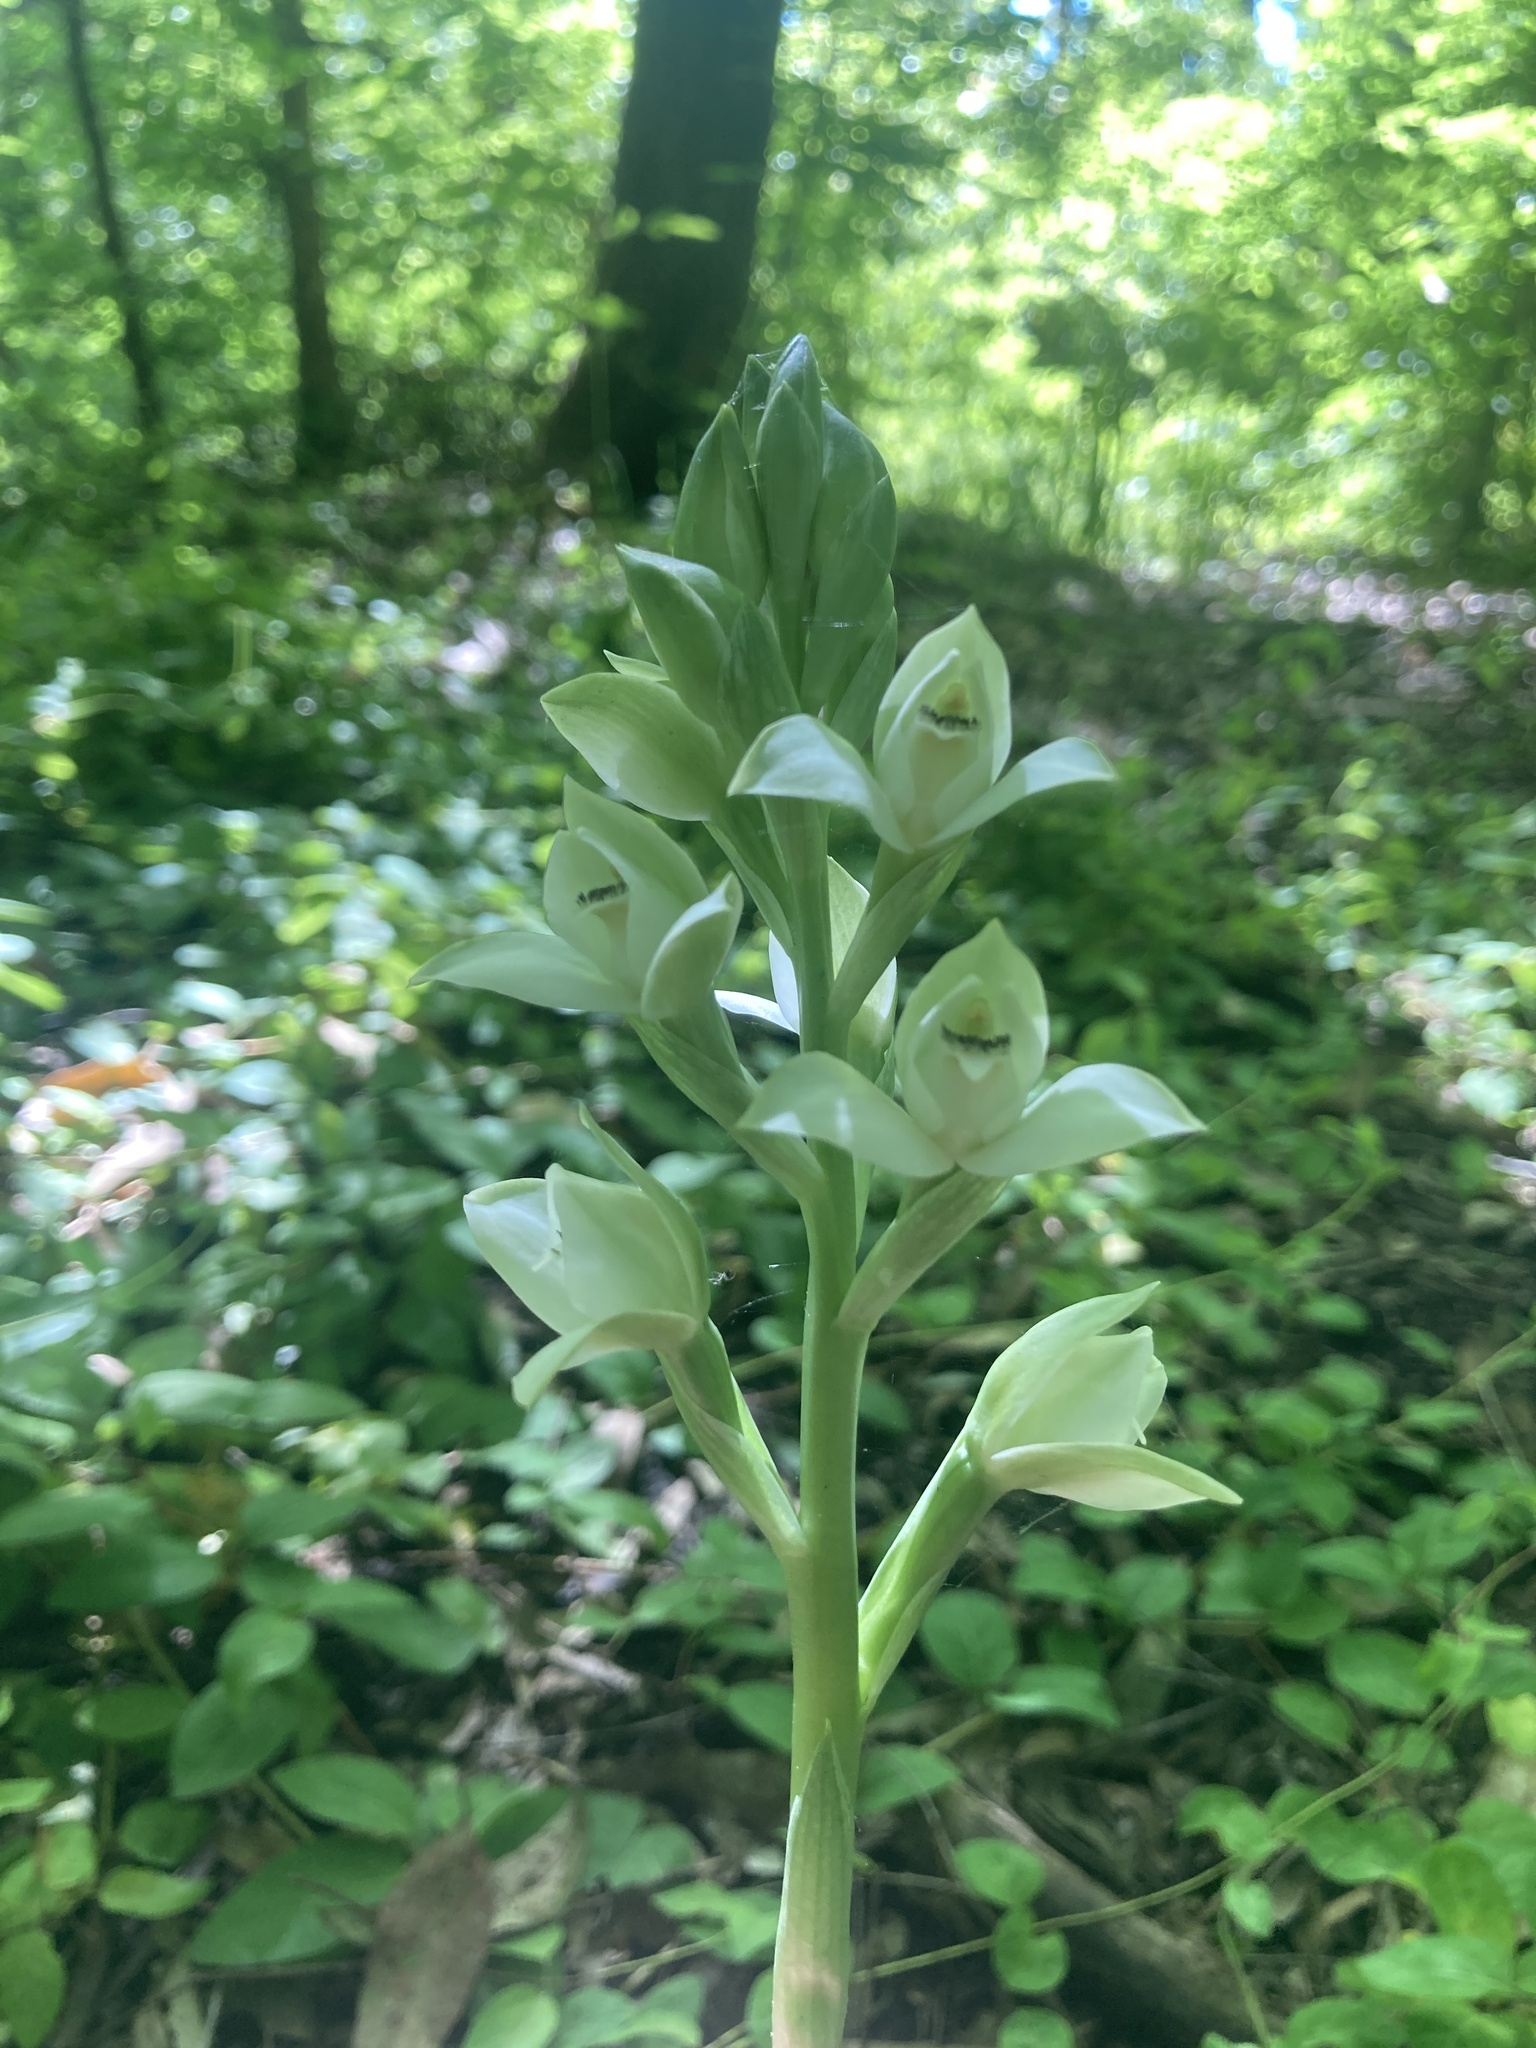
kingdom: Plantae
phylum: Tracheophyta
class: Liliopsida
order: Asparagales
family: Orchidaceae
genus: Chloraea
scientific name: Chloraea membranacea
